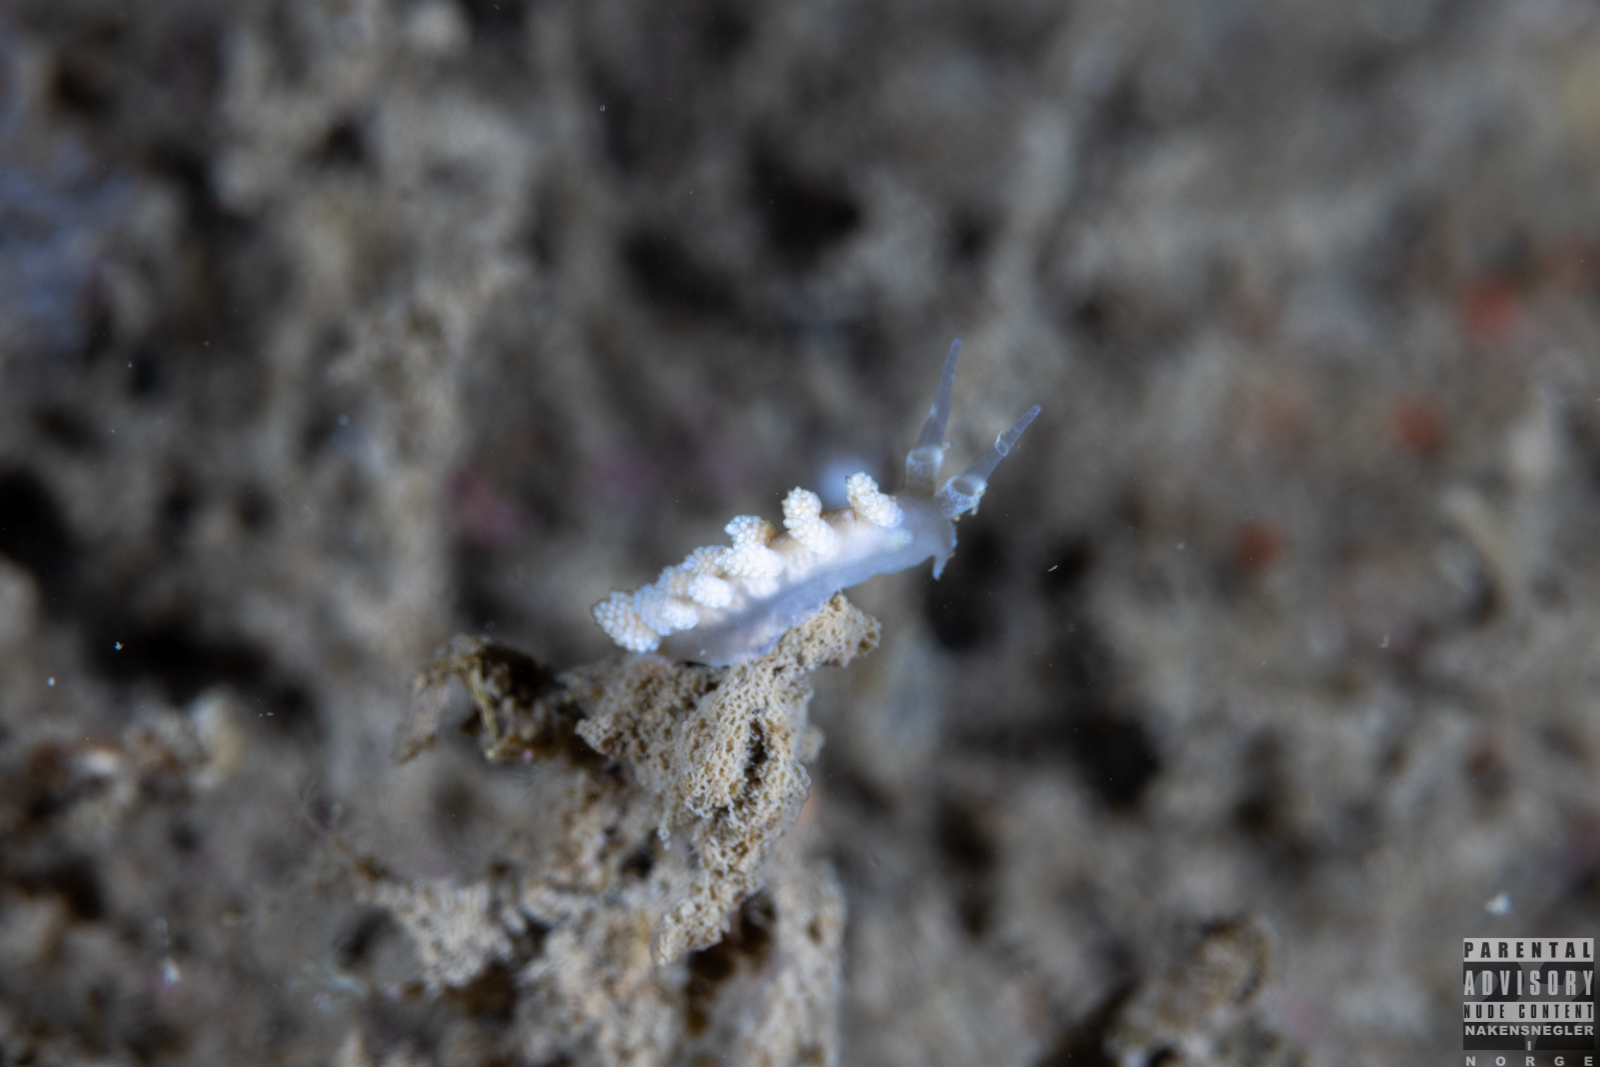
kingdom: Animalia
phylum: Mollusca
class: Gastropoda
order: Nudibranchia
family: Dotidae
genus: Doto
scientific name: Doto fragilis
